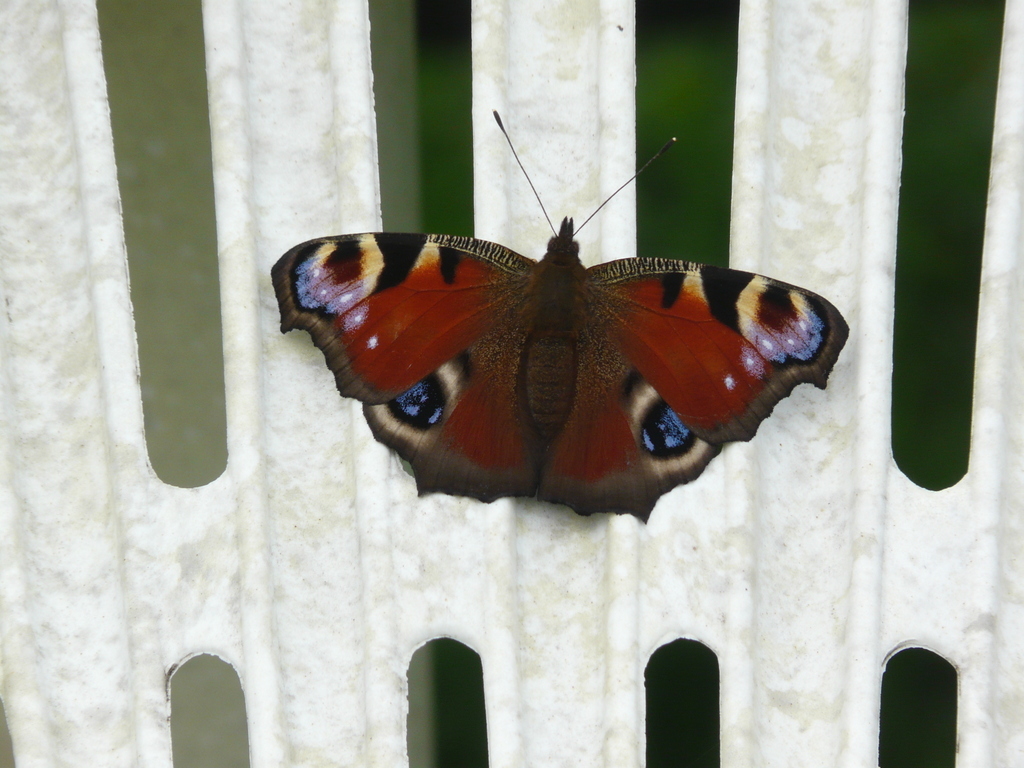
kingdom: Animalia
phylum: Arthropoda
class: Insecta
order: Lepidoptera
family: Nymphalidae
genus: Aglais
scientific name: Aglais io
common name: Peacock
